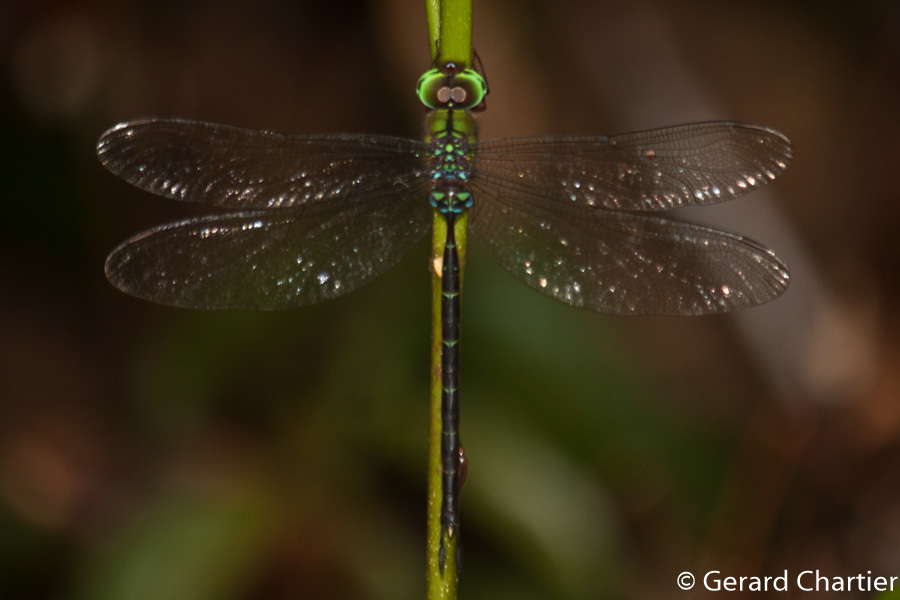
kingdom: Animalia
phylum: Arthropoda
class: Insecta
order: Odonata
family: Aeshnidae
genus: Gynacantha
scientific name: Gynacantha demeter
